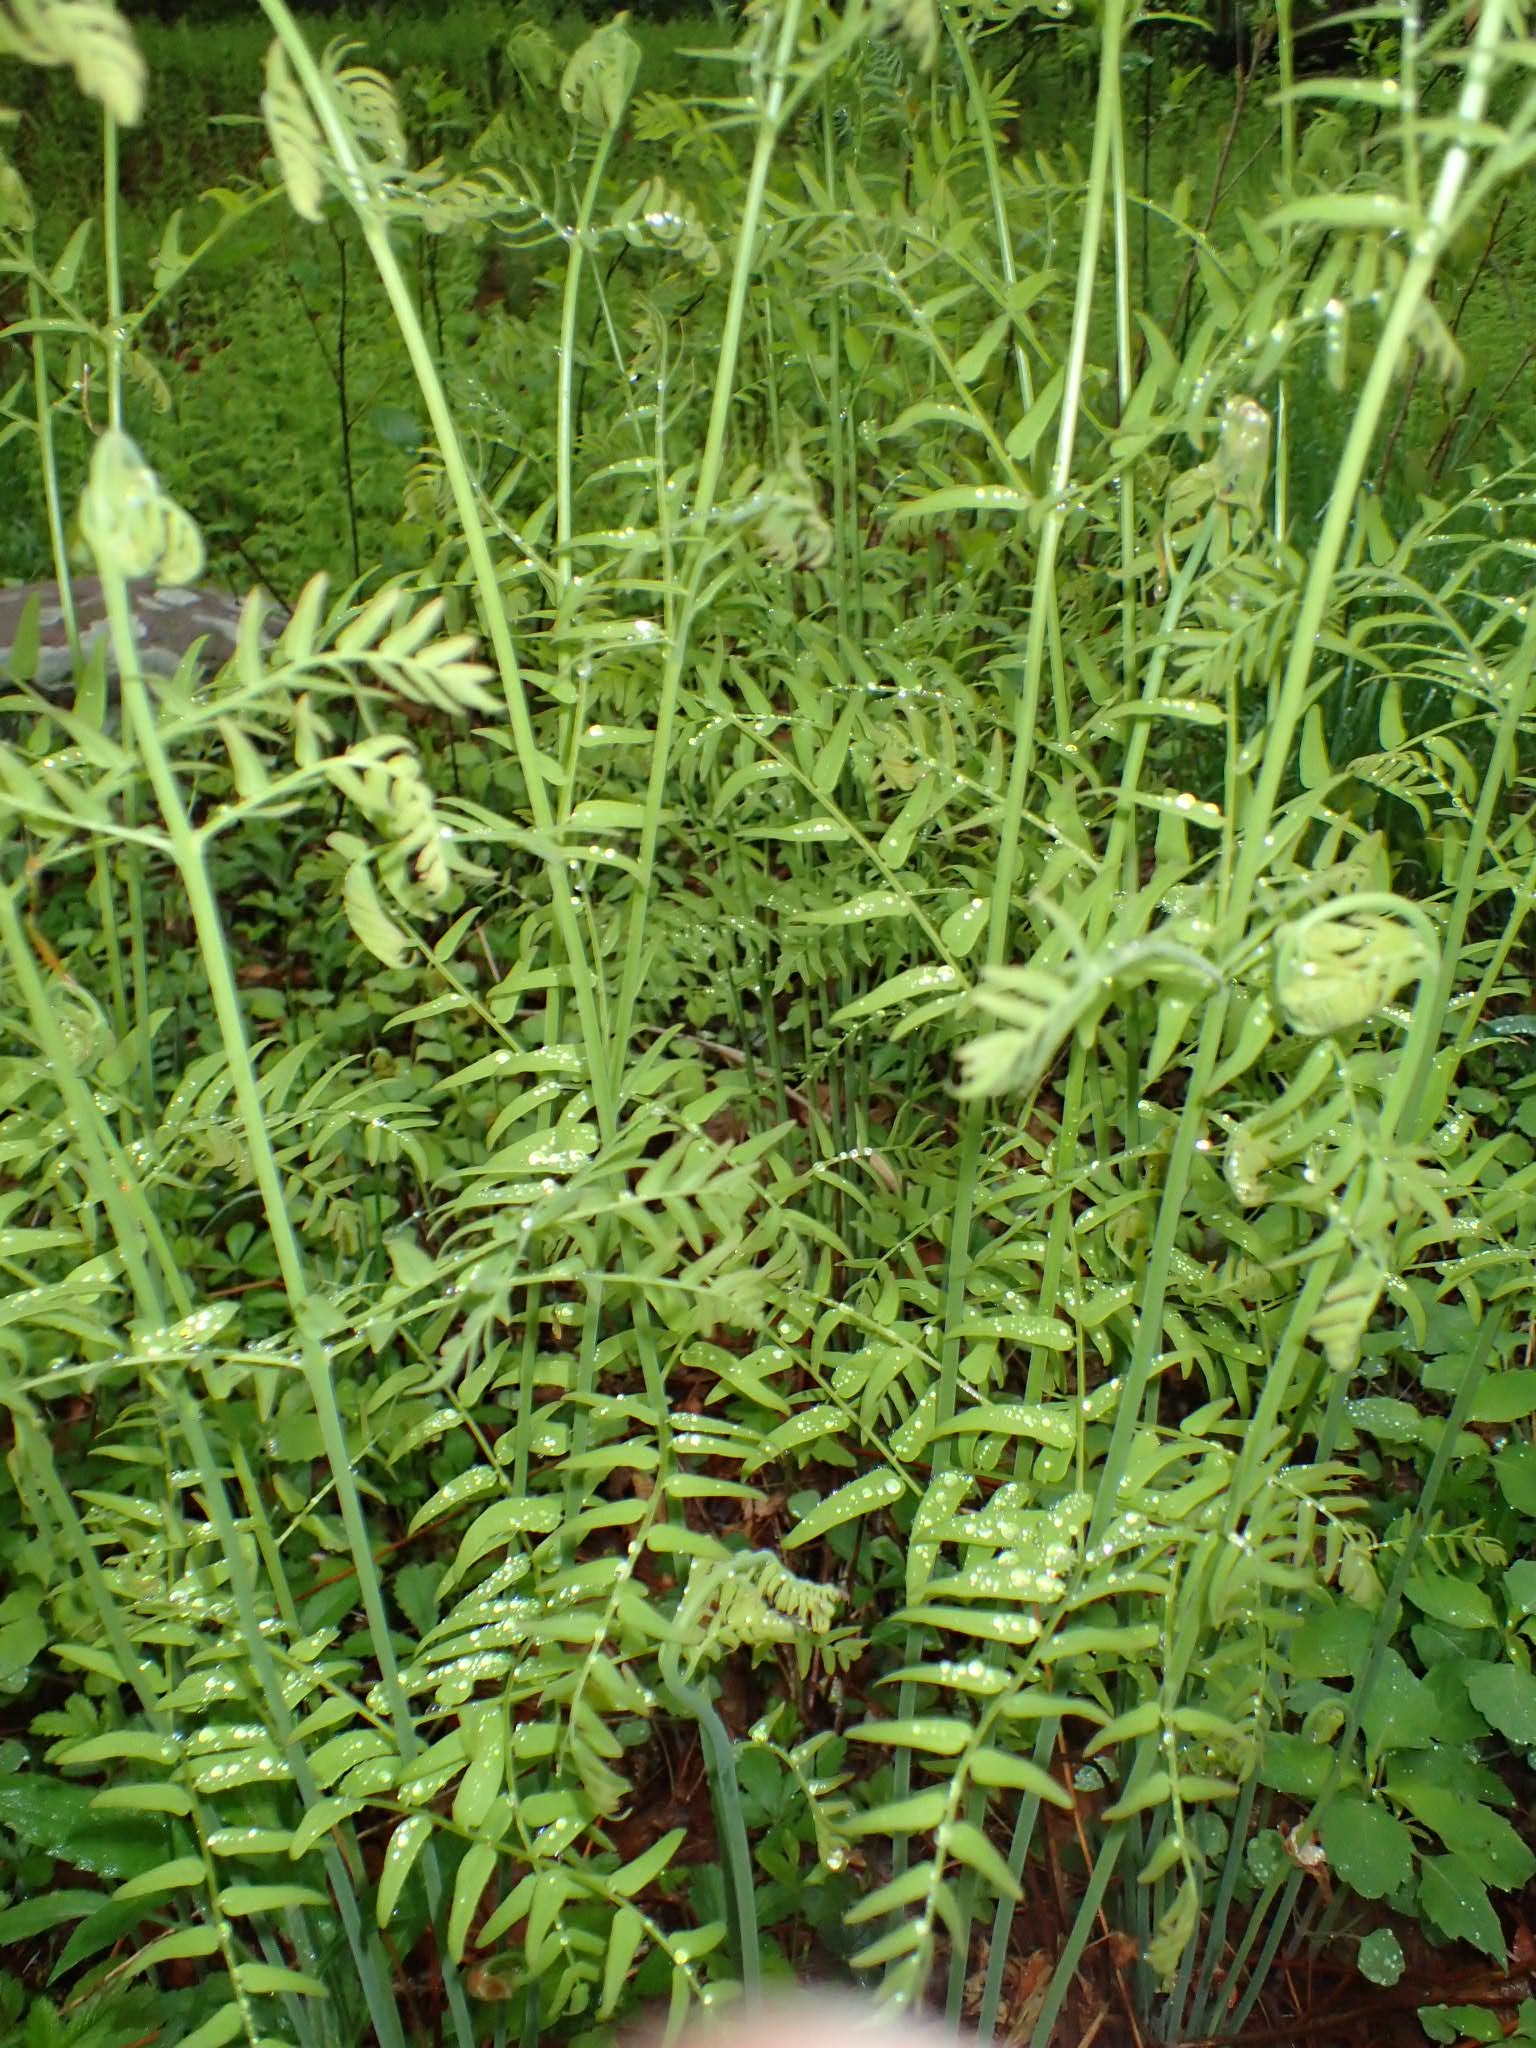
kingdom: Plantae
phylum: Tracheophyta
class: Polypodiopsida
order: Osmundales
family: Osmundaceae
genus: Osmunda
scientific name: Osmunda spectabilis
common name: American royal fern
